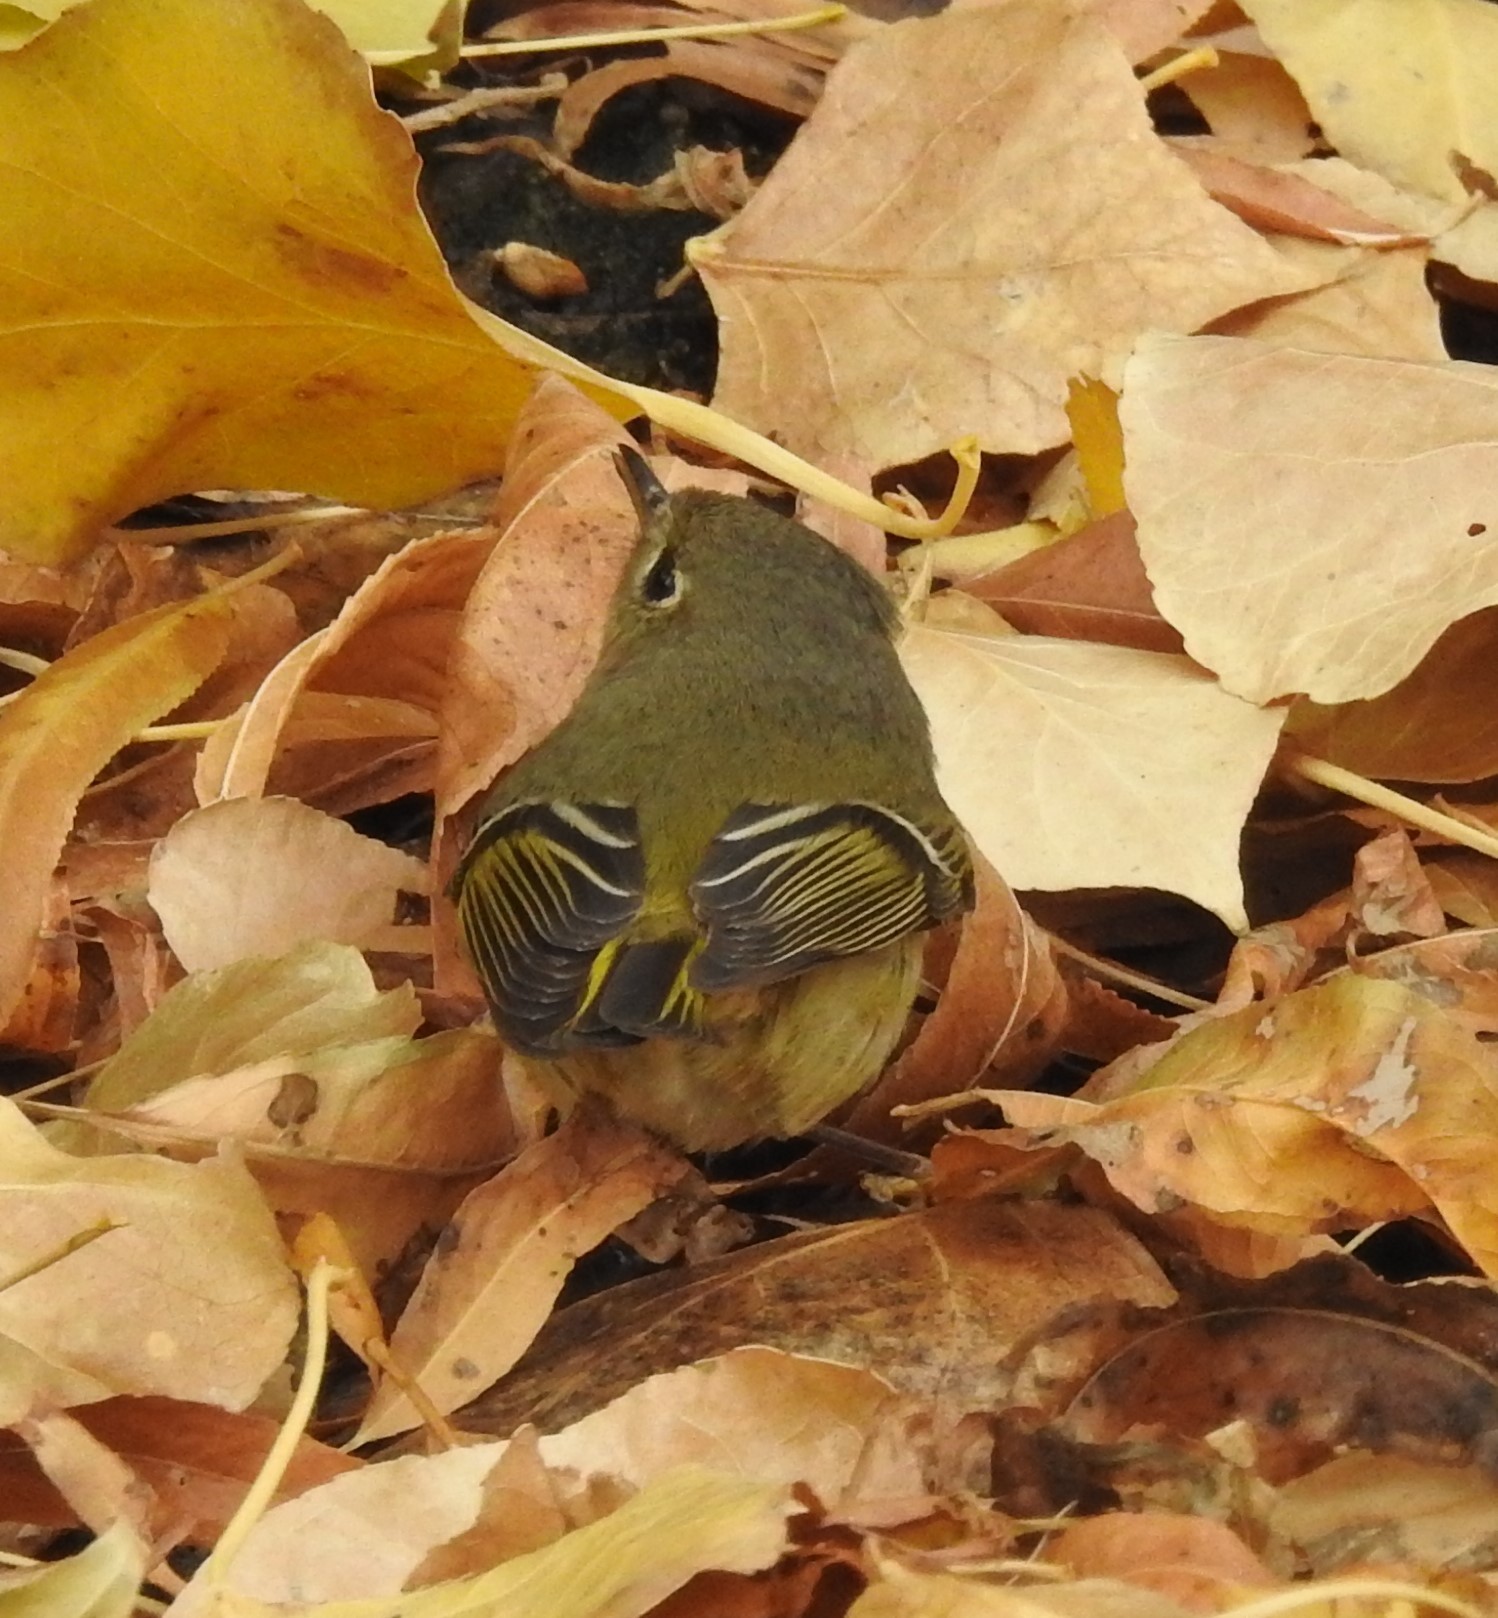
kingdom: Animalia
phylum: Chordata
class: Aves
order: Passeriformes
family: Regulidae
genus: Regulus
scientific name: Regulus calendula
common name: Ruby-crowned kinglet
